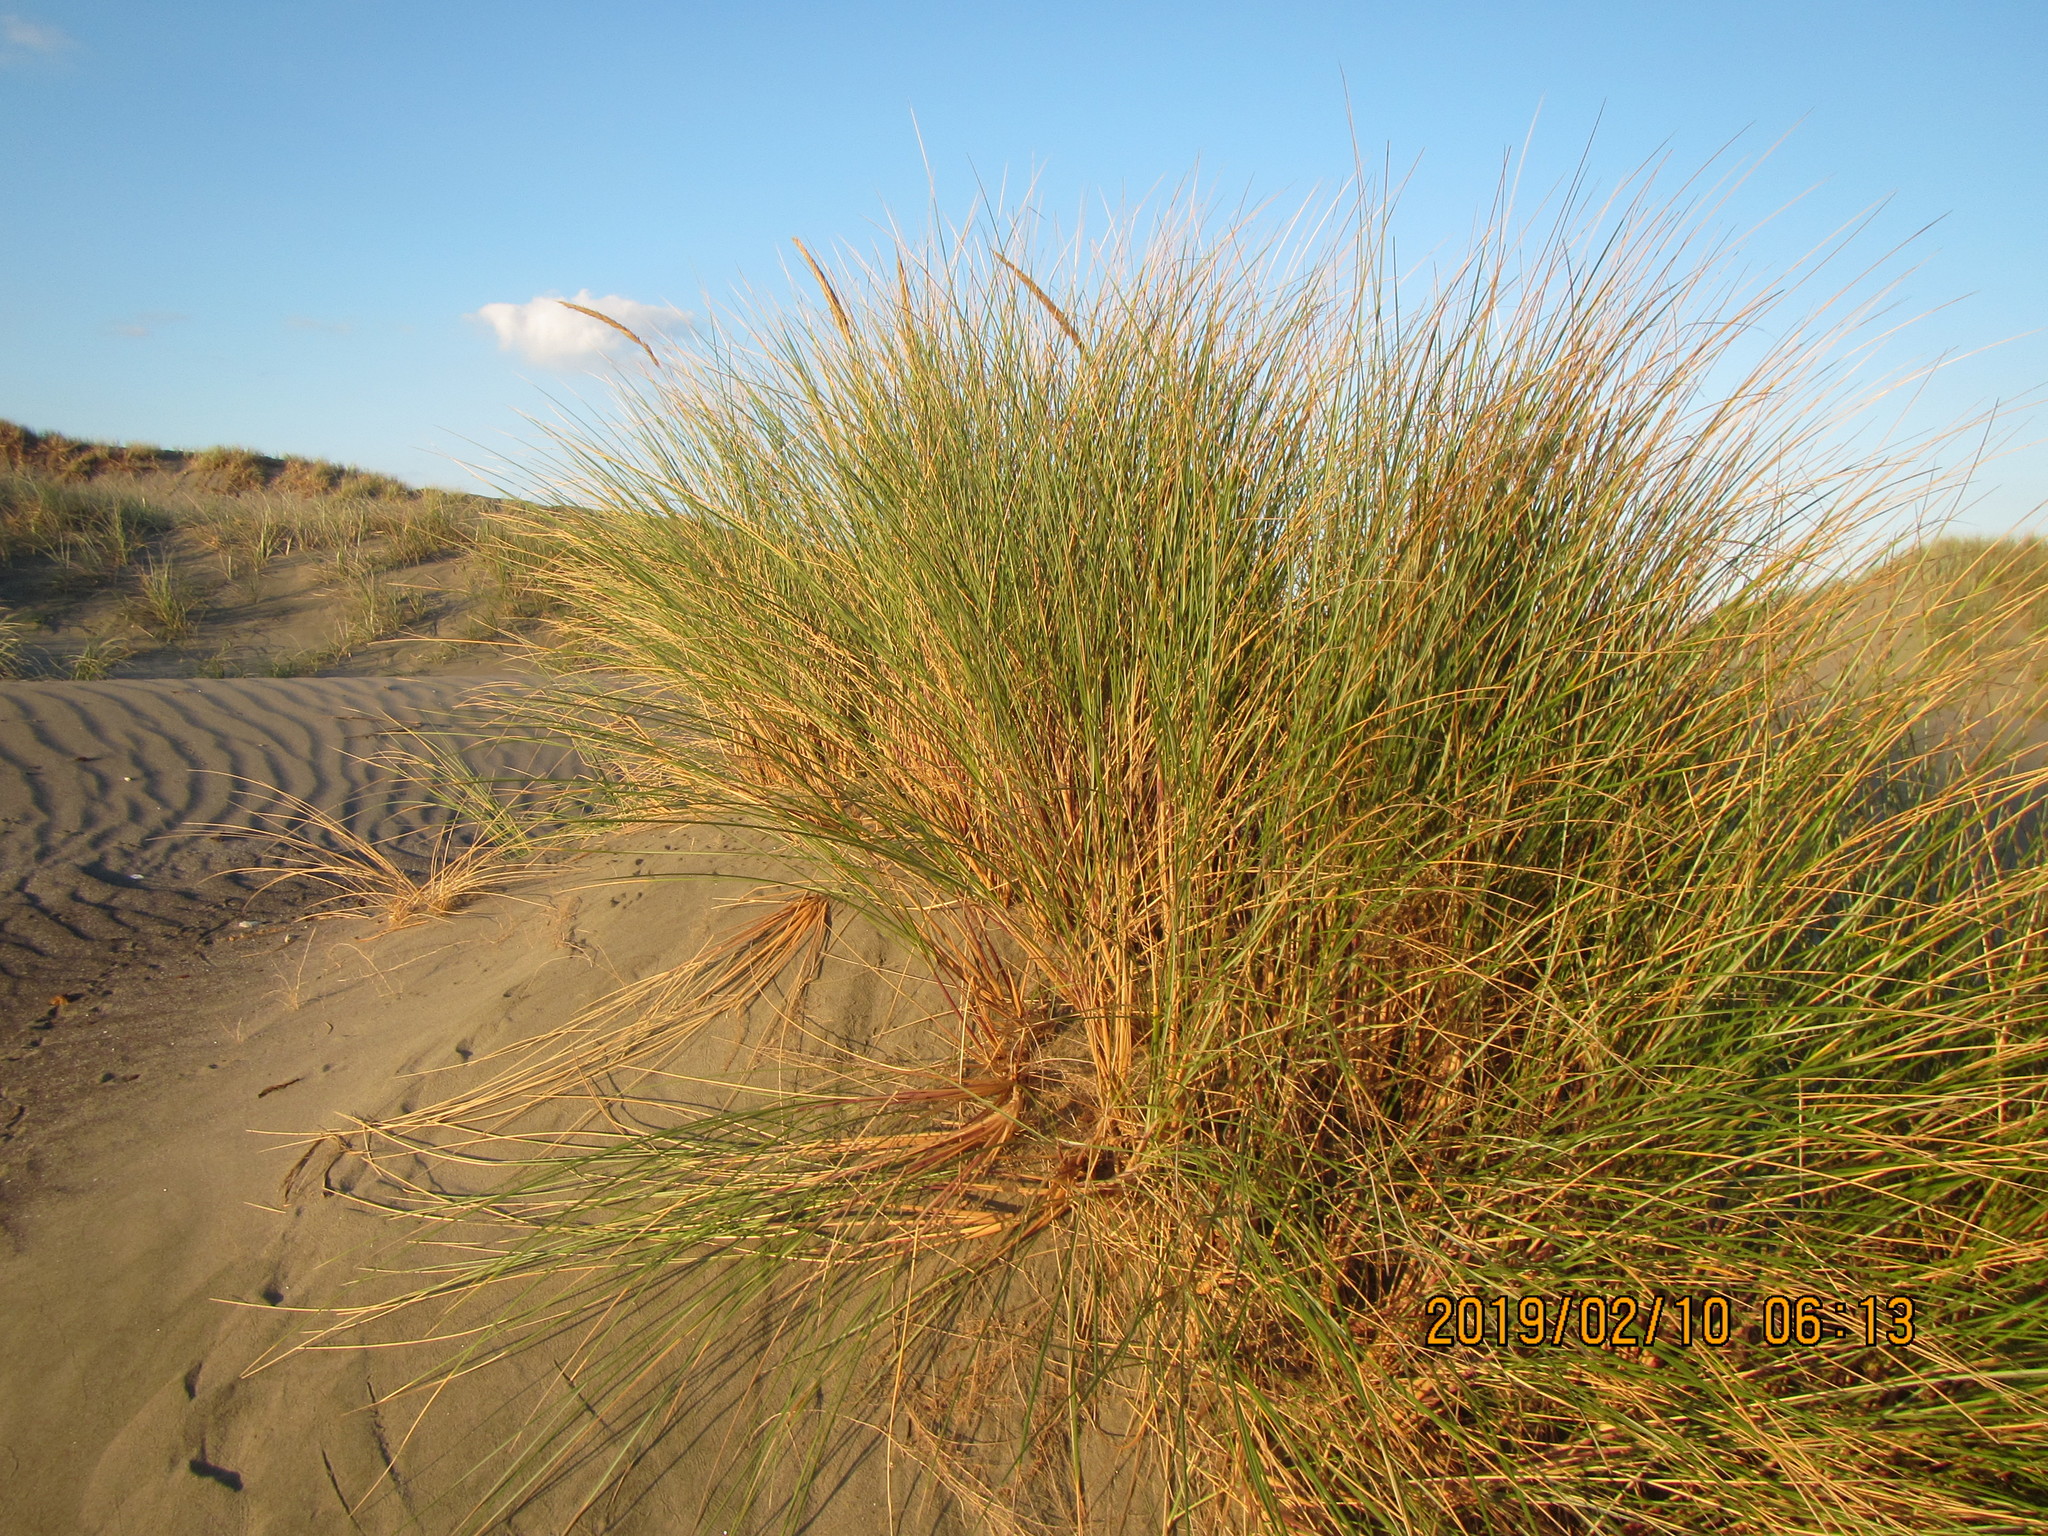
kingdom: Plantae
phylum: Tracheophyta
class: Liliopsida
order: Poales
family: Poaceae
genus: Calamagrostis
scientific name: Calamagrostis arenaria
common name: European beachgrass
